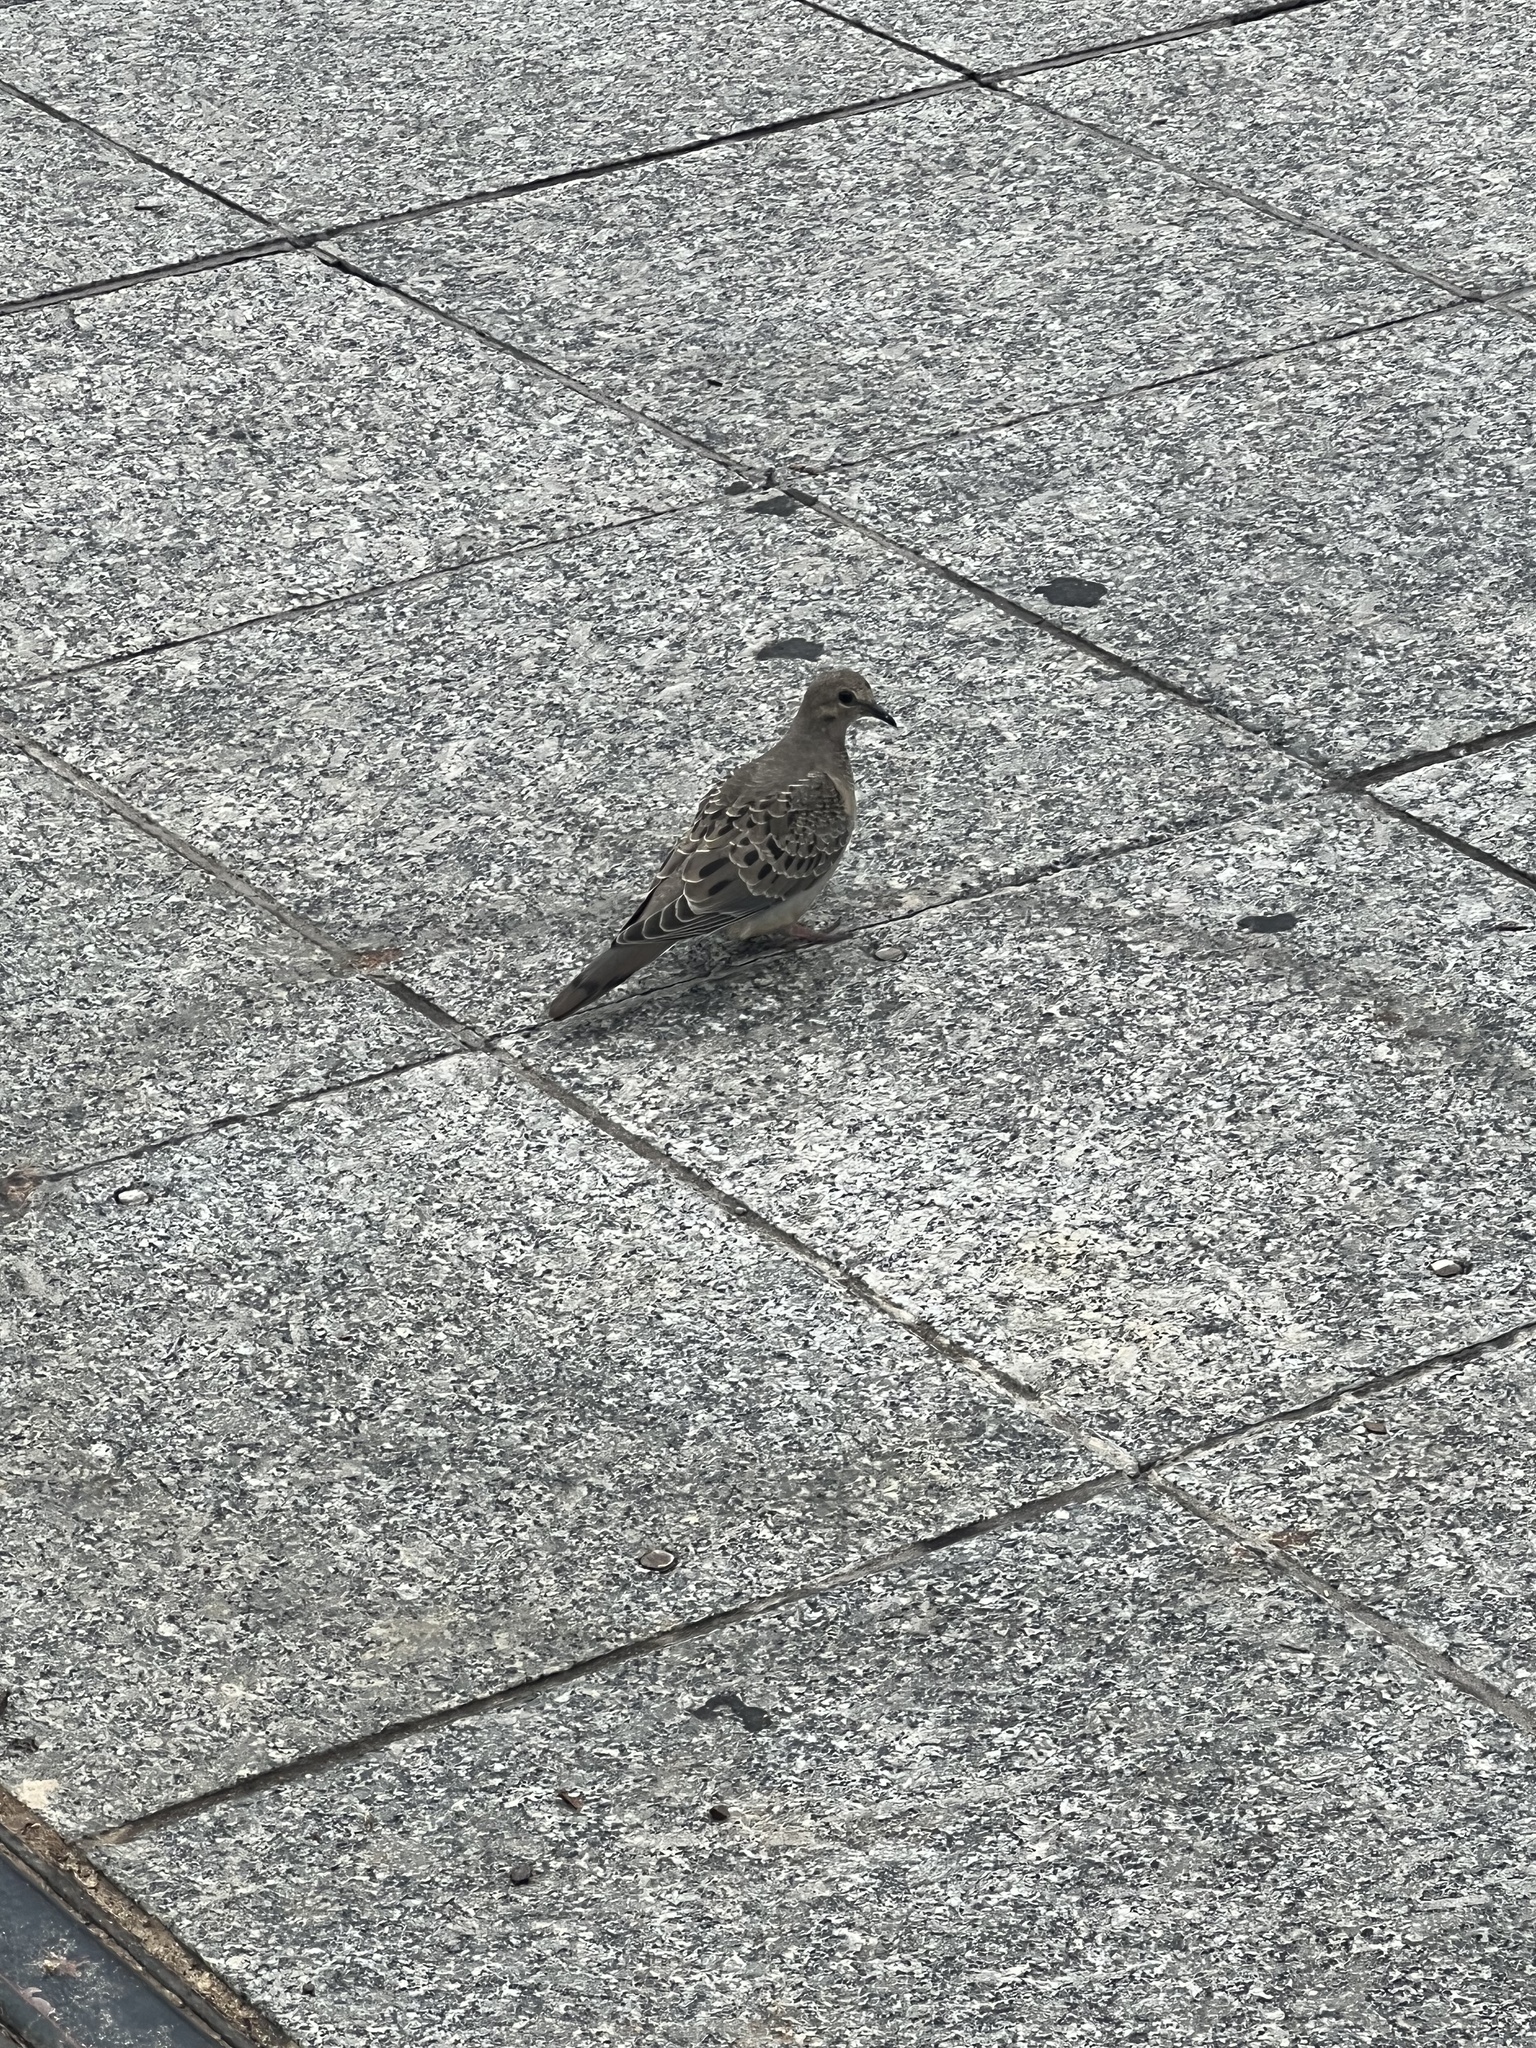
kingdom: Animalia
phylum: Chordata
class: Aves
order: Columbiformes
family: Columbidae
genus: Zenaida
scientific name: Zenaida macroura
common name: Mourning dove
